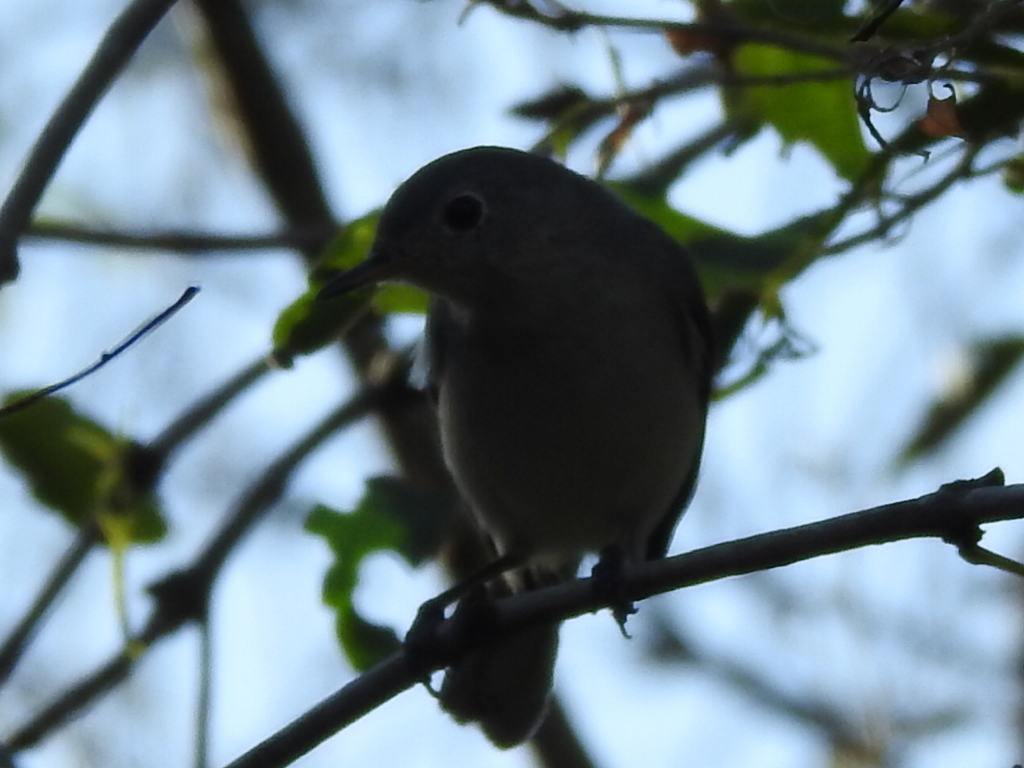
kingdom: Animalia
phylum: Chordata
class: Aves
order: Passeriformes
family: Polioptilidae
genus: Polioptila
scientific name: Polioptila caerulea
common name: Blue-gray gnatcatcher
